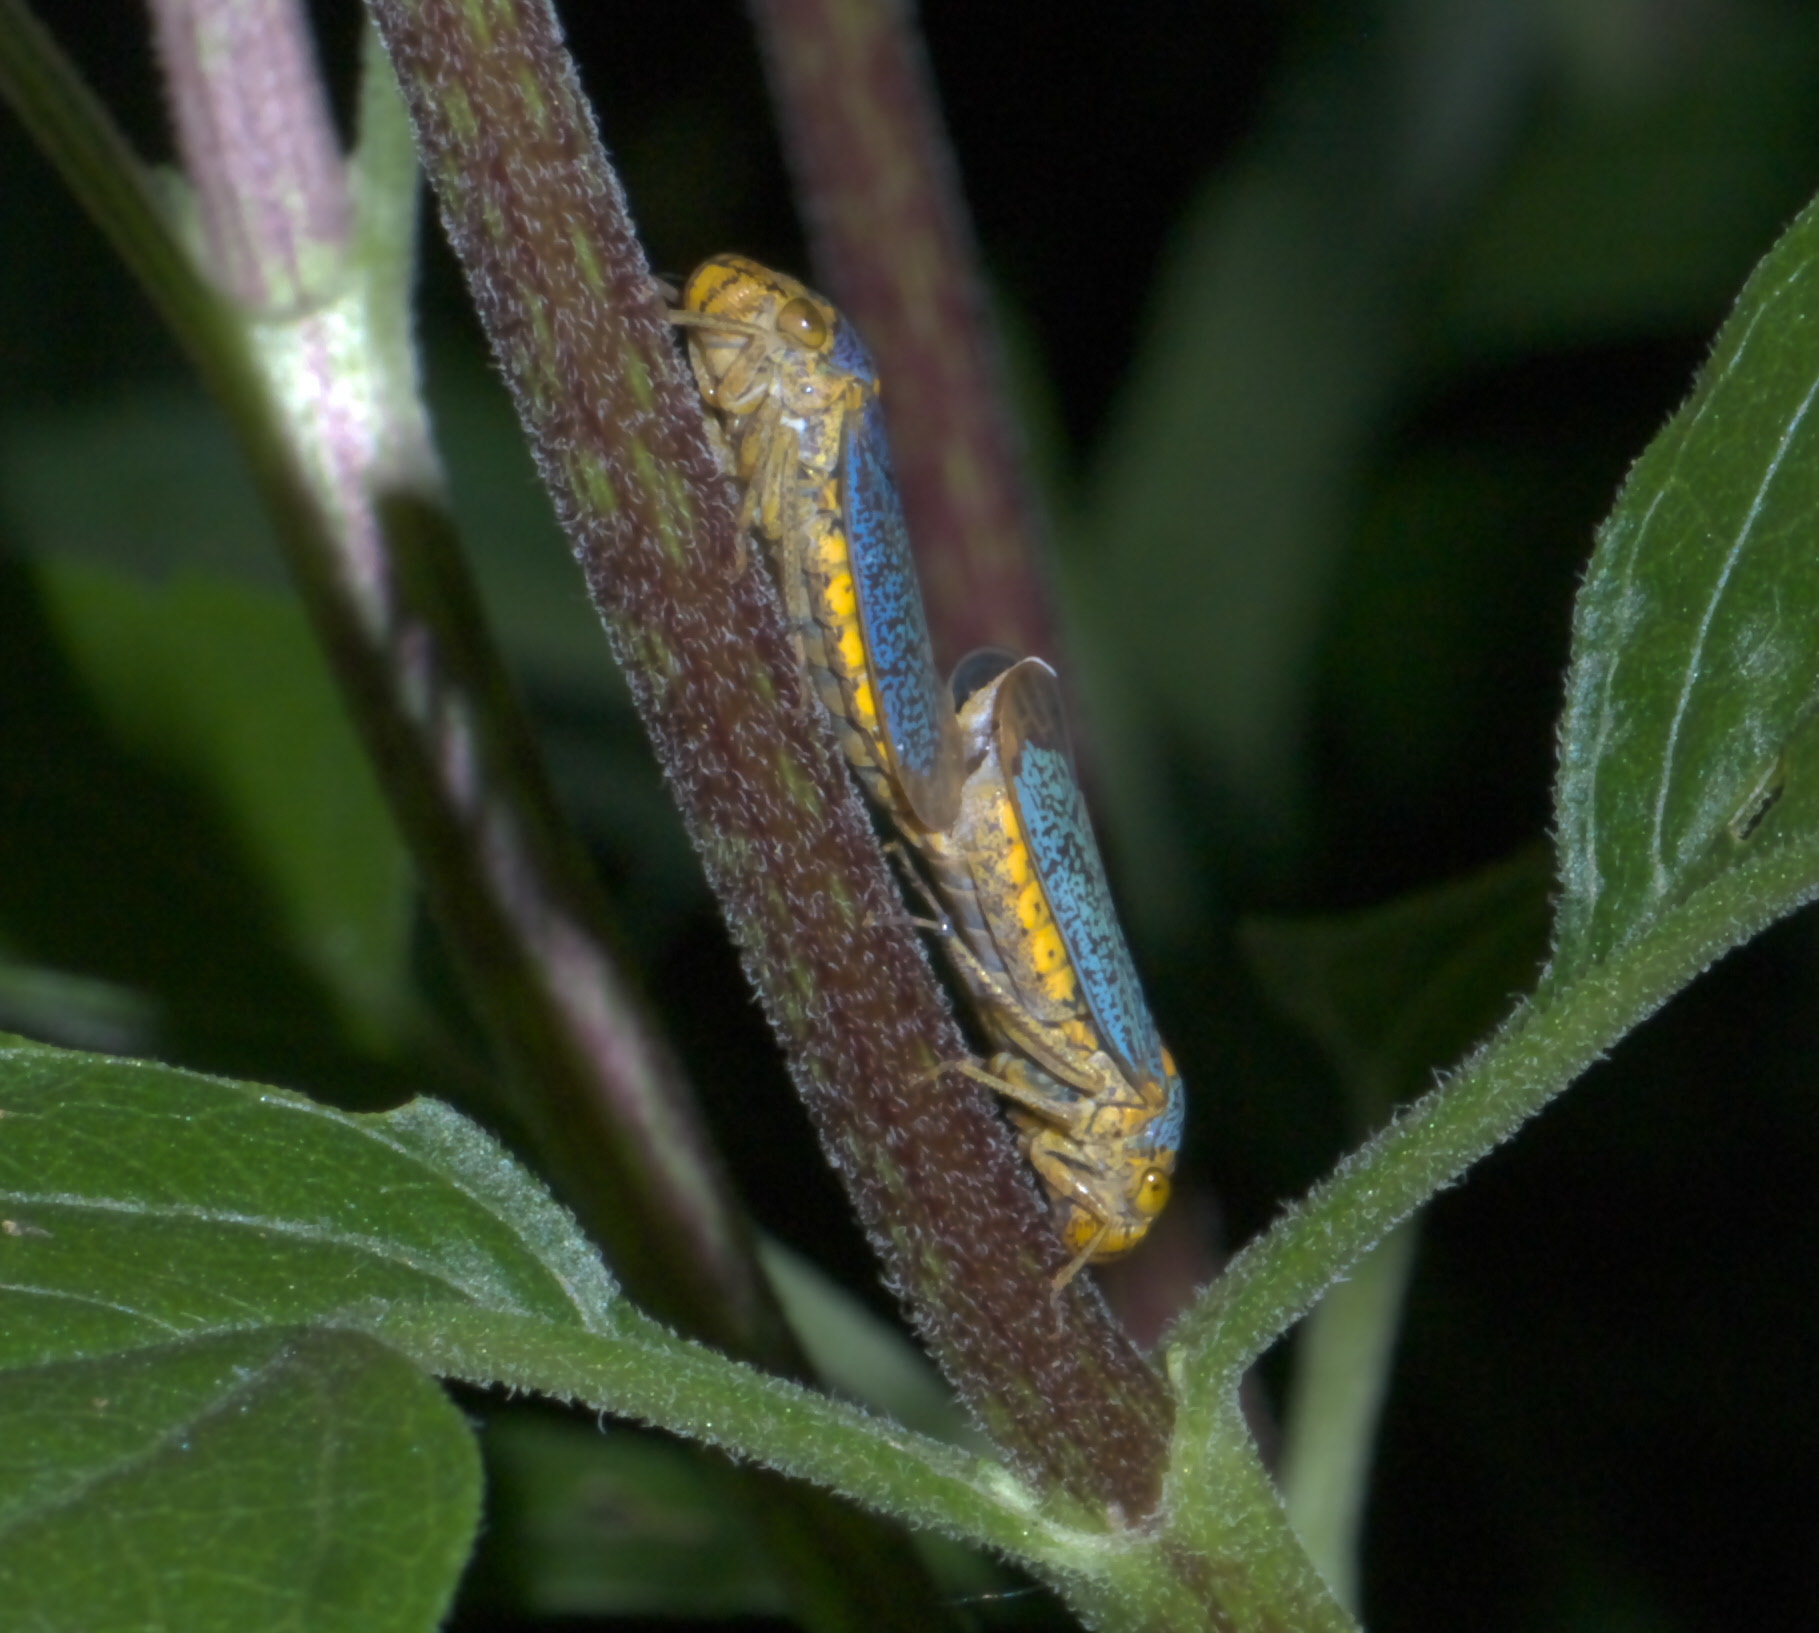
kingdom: Animalia
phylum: Arthropoda
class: Insecta
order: Hemiptera
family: Cicadellidae
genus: Oncometopia
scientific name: Oncometopia orbona
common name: Broad-headed sharpshooter
